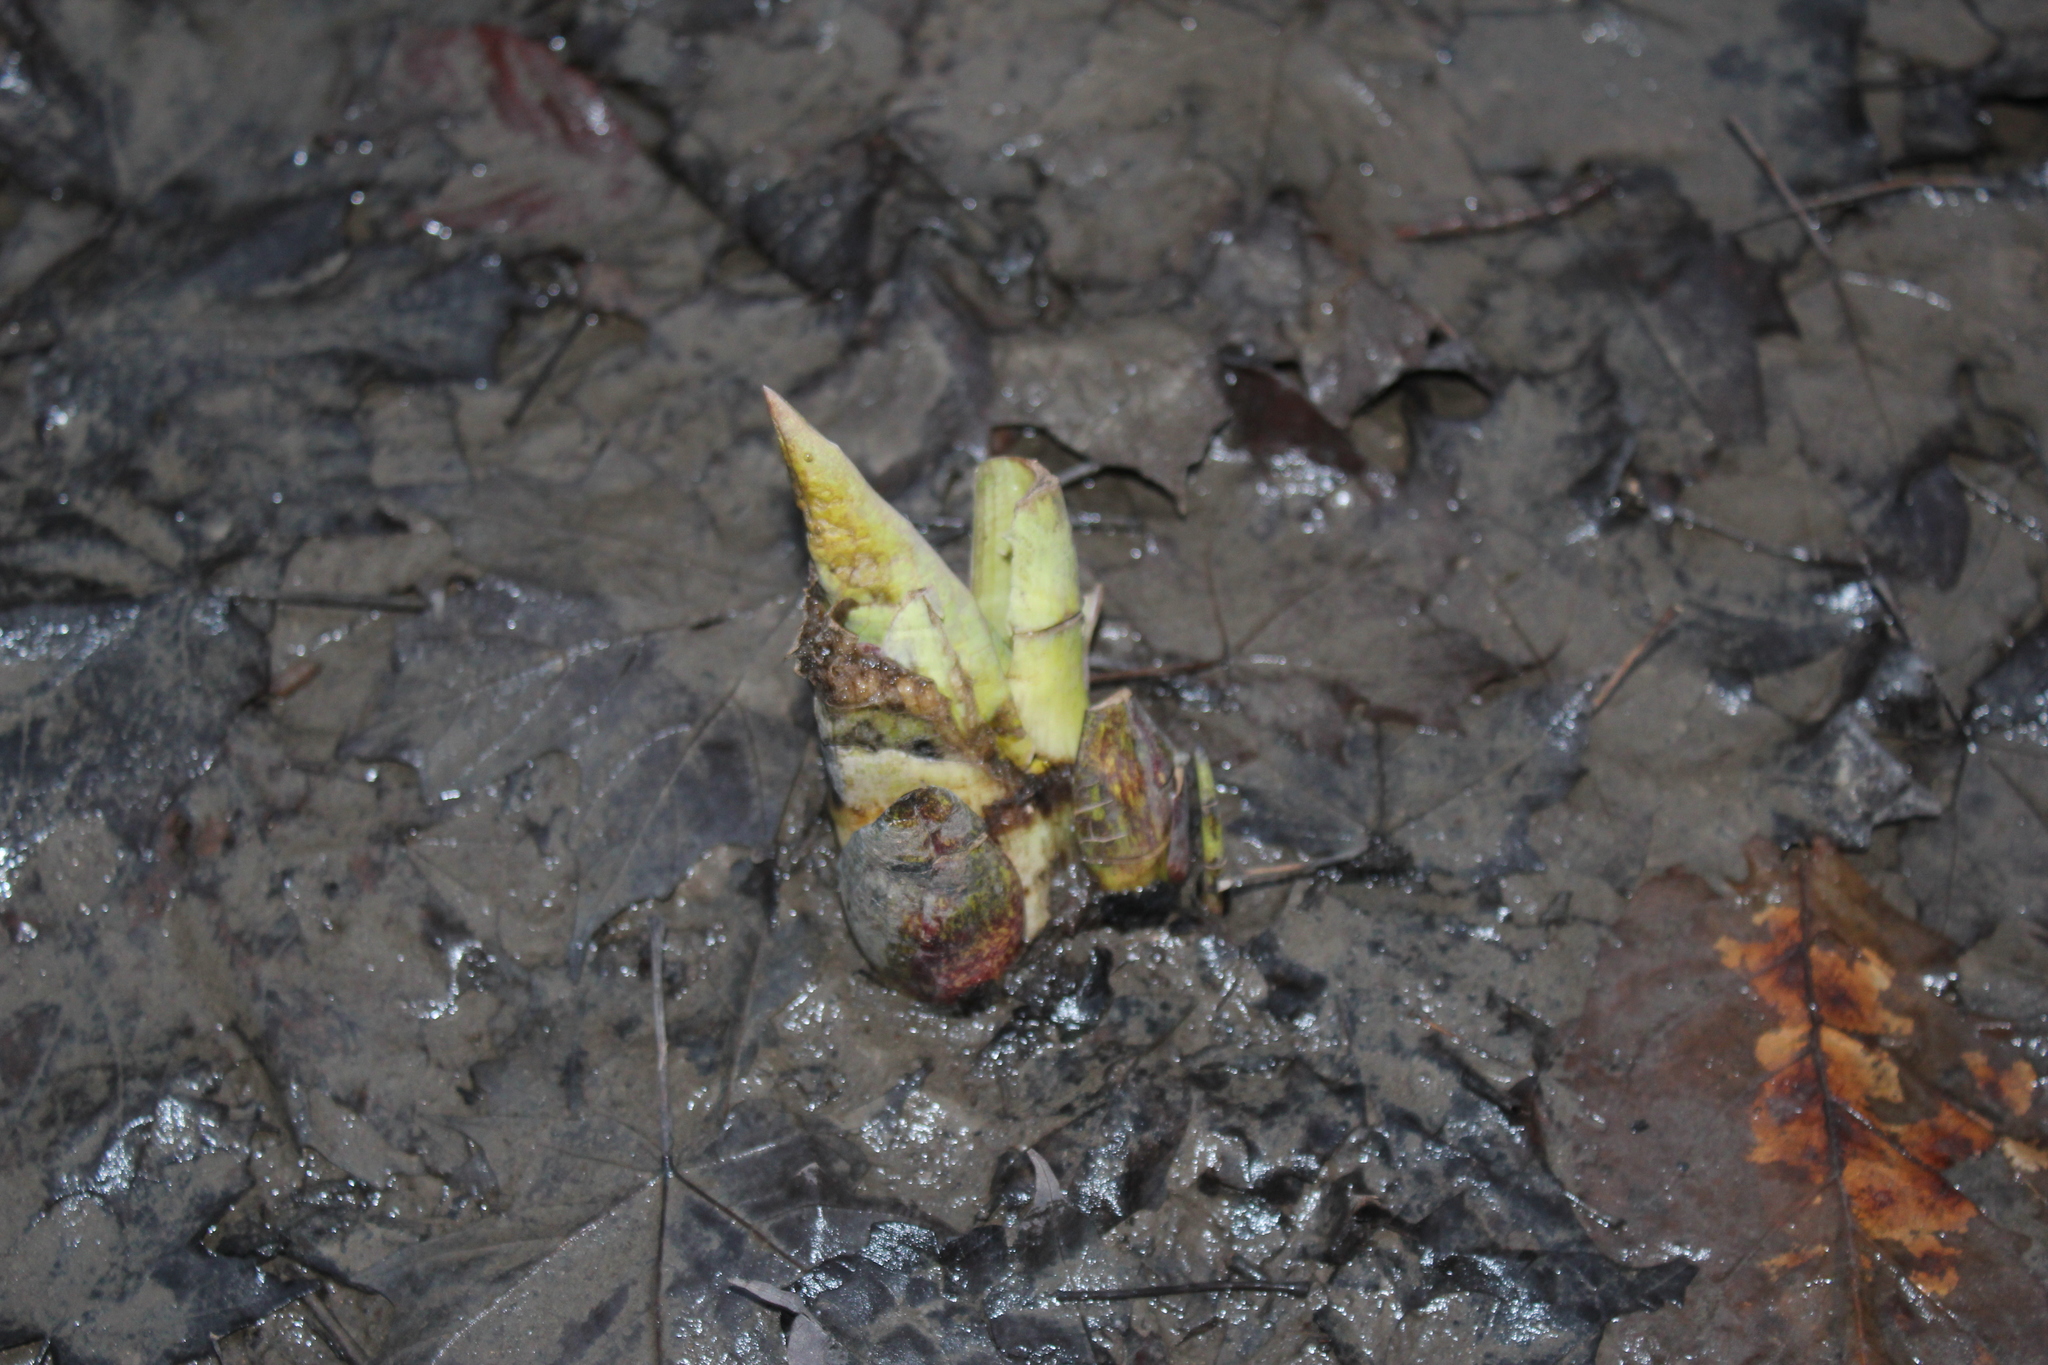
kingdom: Plantae
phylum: Tracheophyta
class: Liliopsida
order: Alismatales
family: Araceae
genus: Symplocarpus
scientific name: Symplocarpus foetidus
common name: Eastern skunk cabbage
